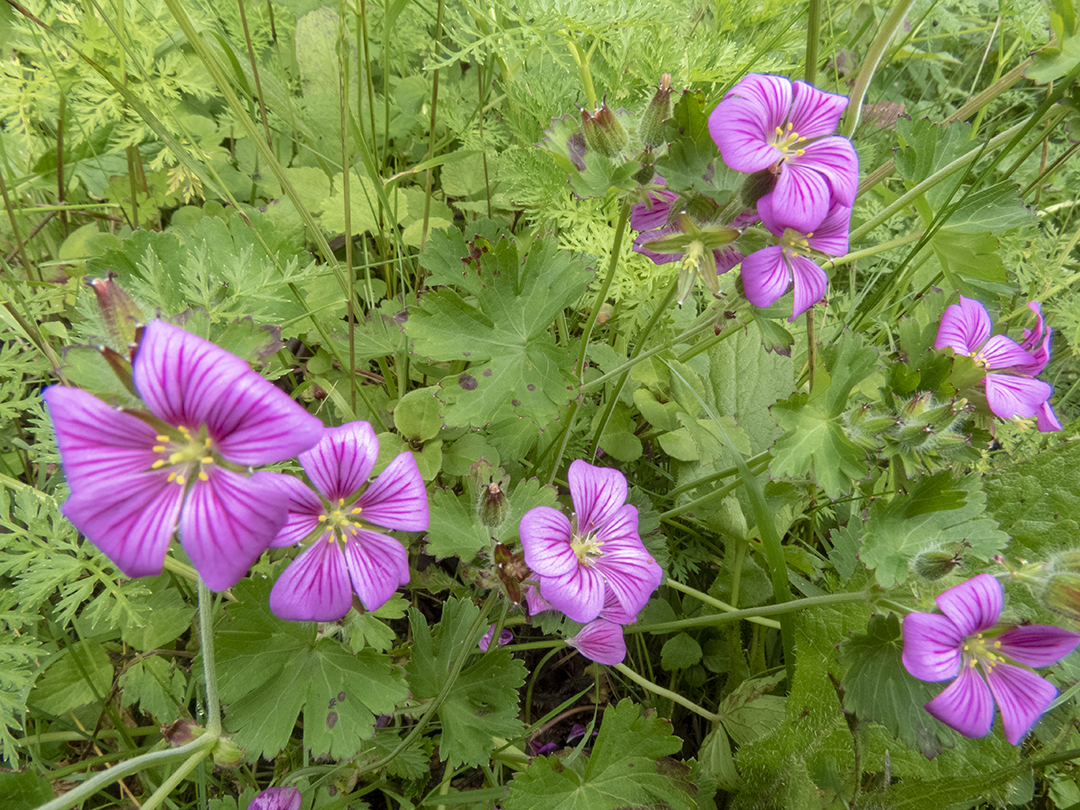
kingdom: Plantae
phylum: Tracheophyta
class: Magnoliopsida
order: Geraniales
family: Geraniaceae
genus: Geranium
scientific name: Geranium polyanthes
